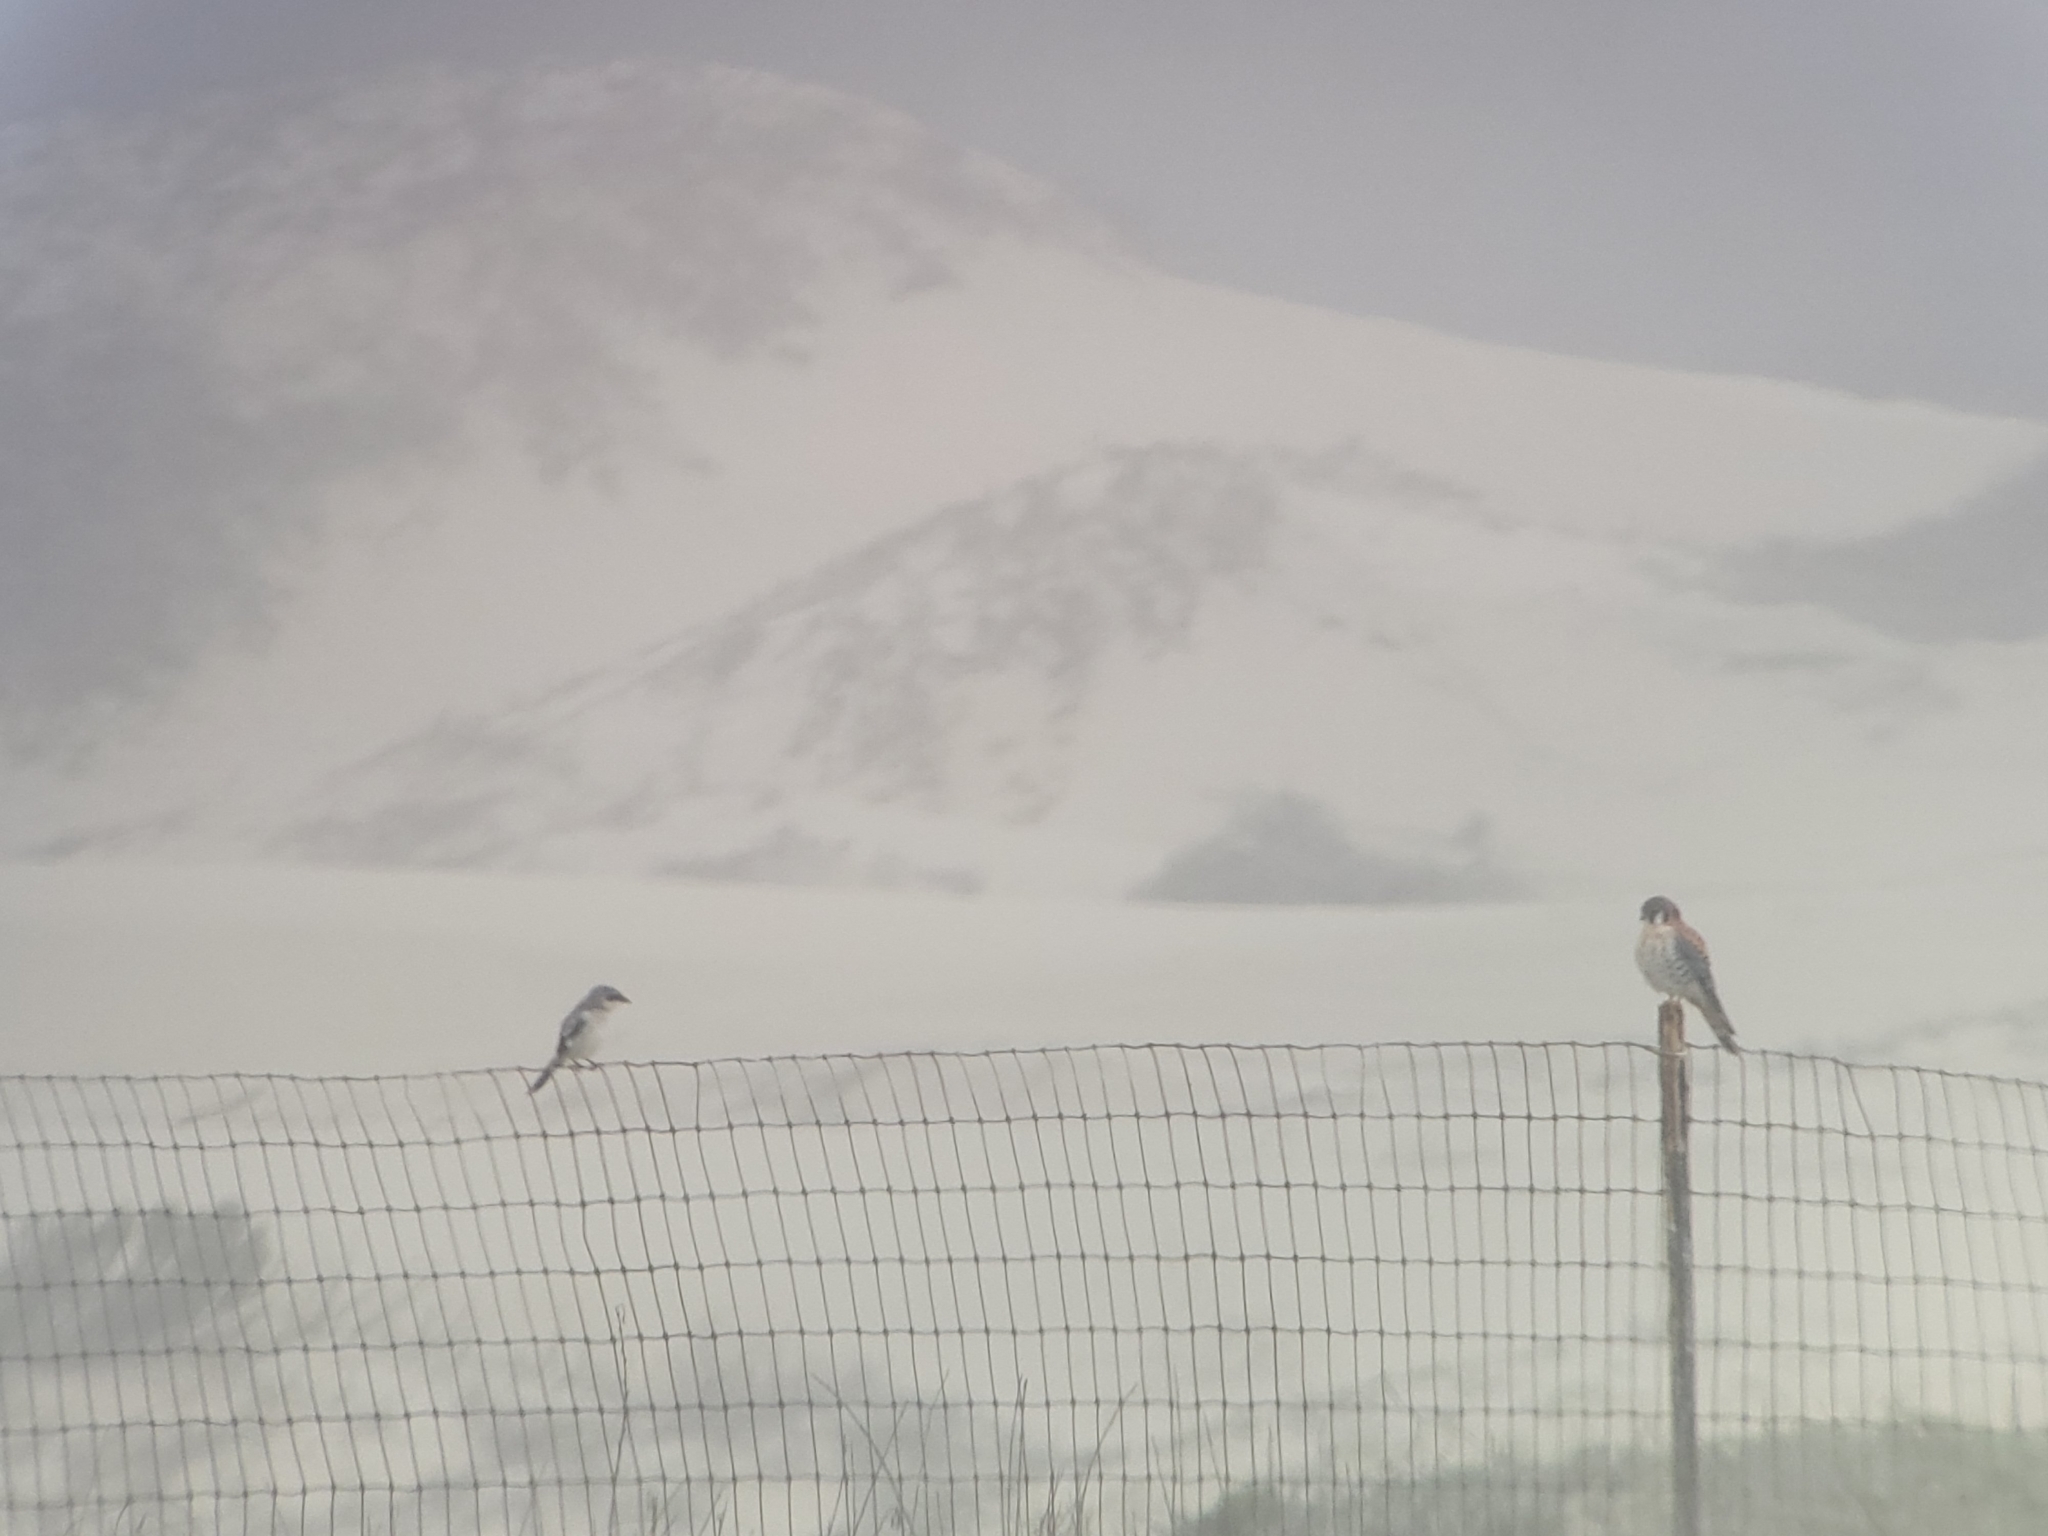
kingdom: Animalia
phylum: Chordata
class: Aves
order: Falconiformes
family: Falconidae
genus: Falco
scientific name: Falco sparverius
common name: American kestrel
